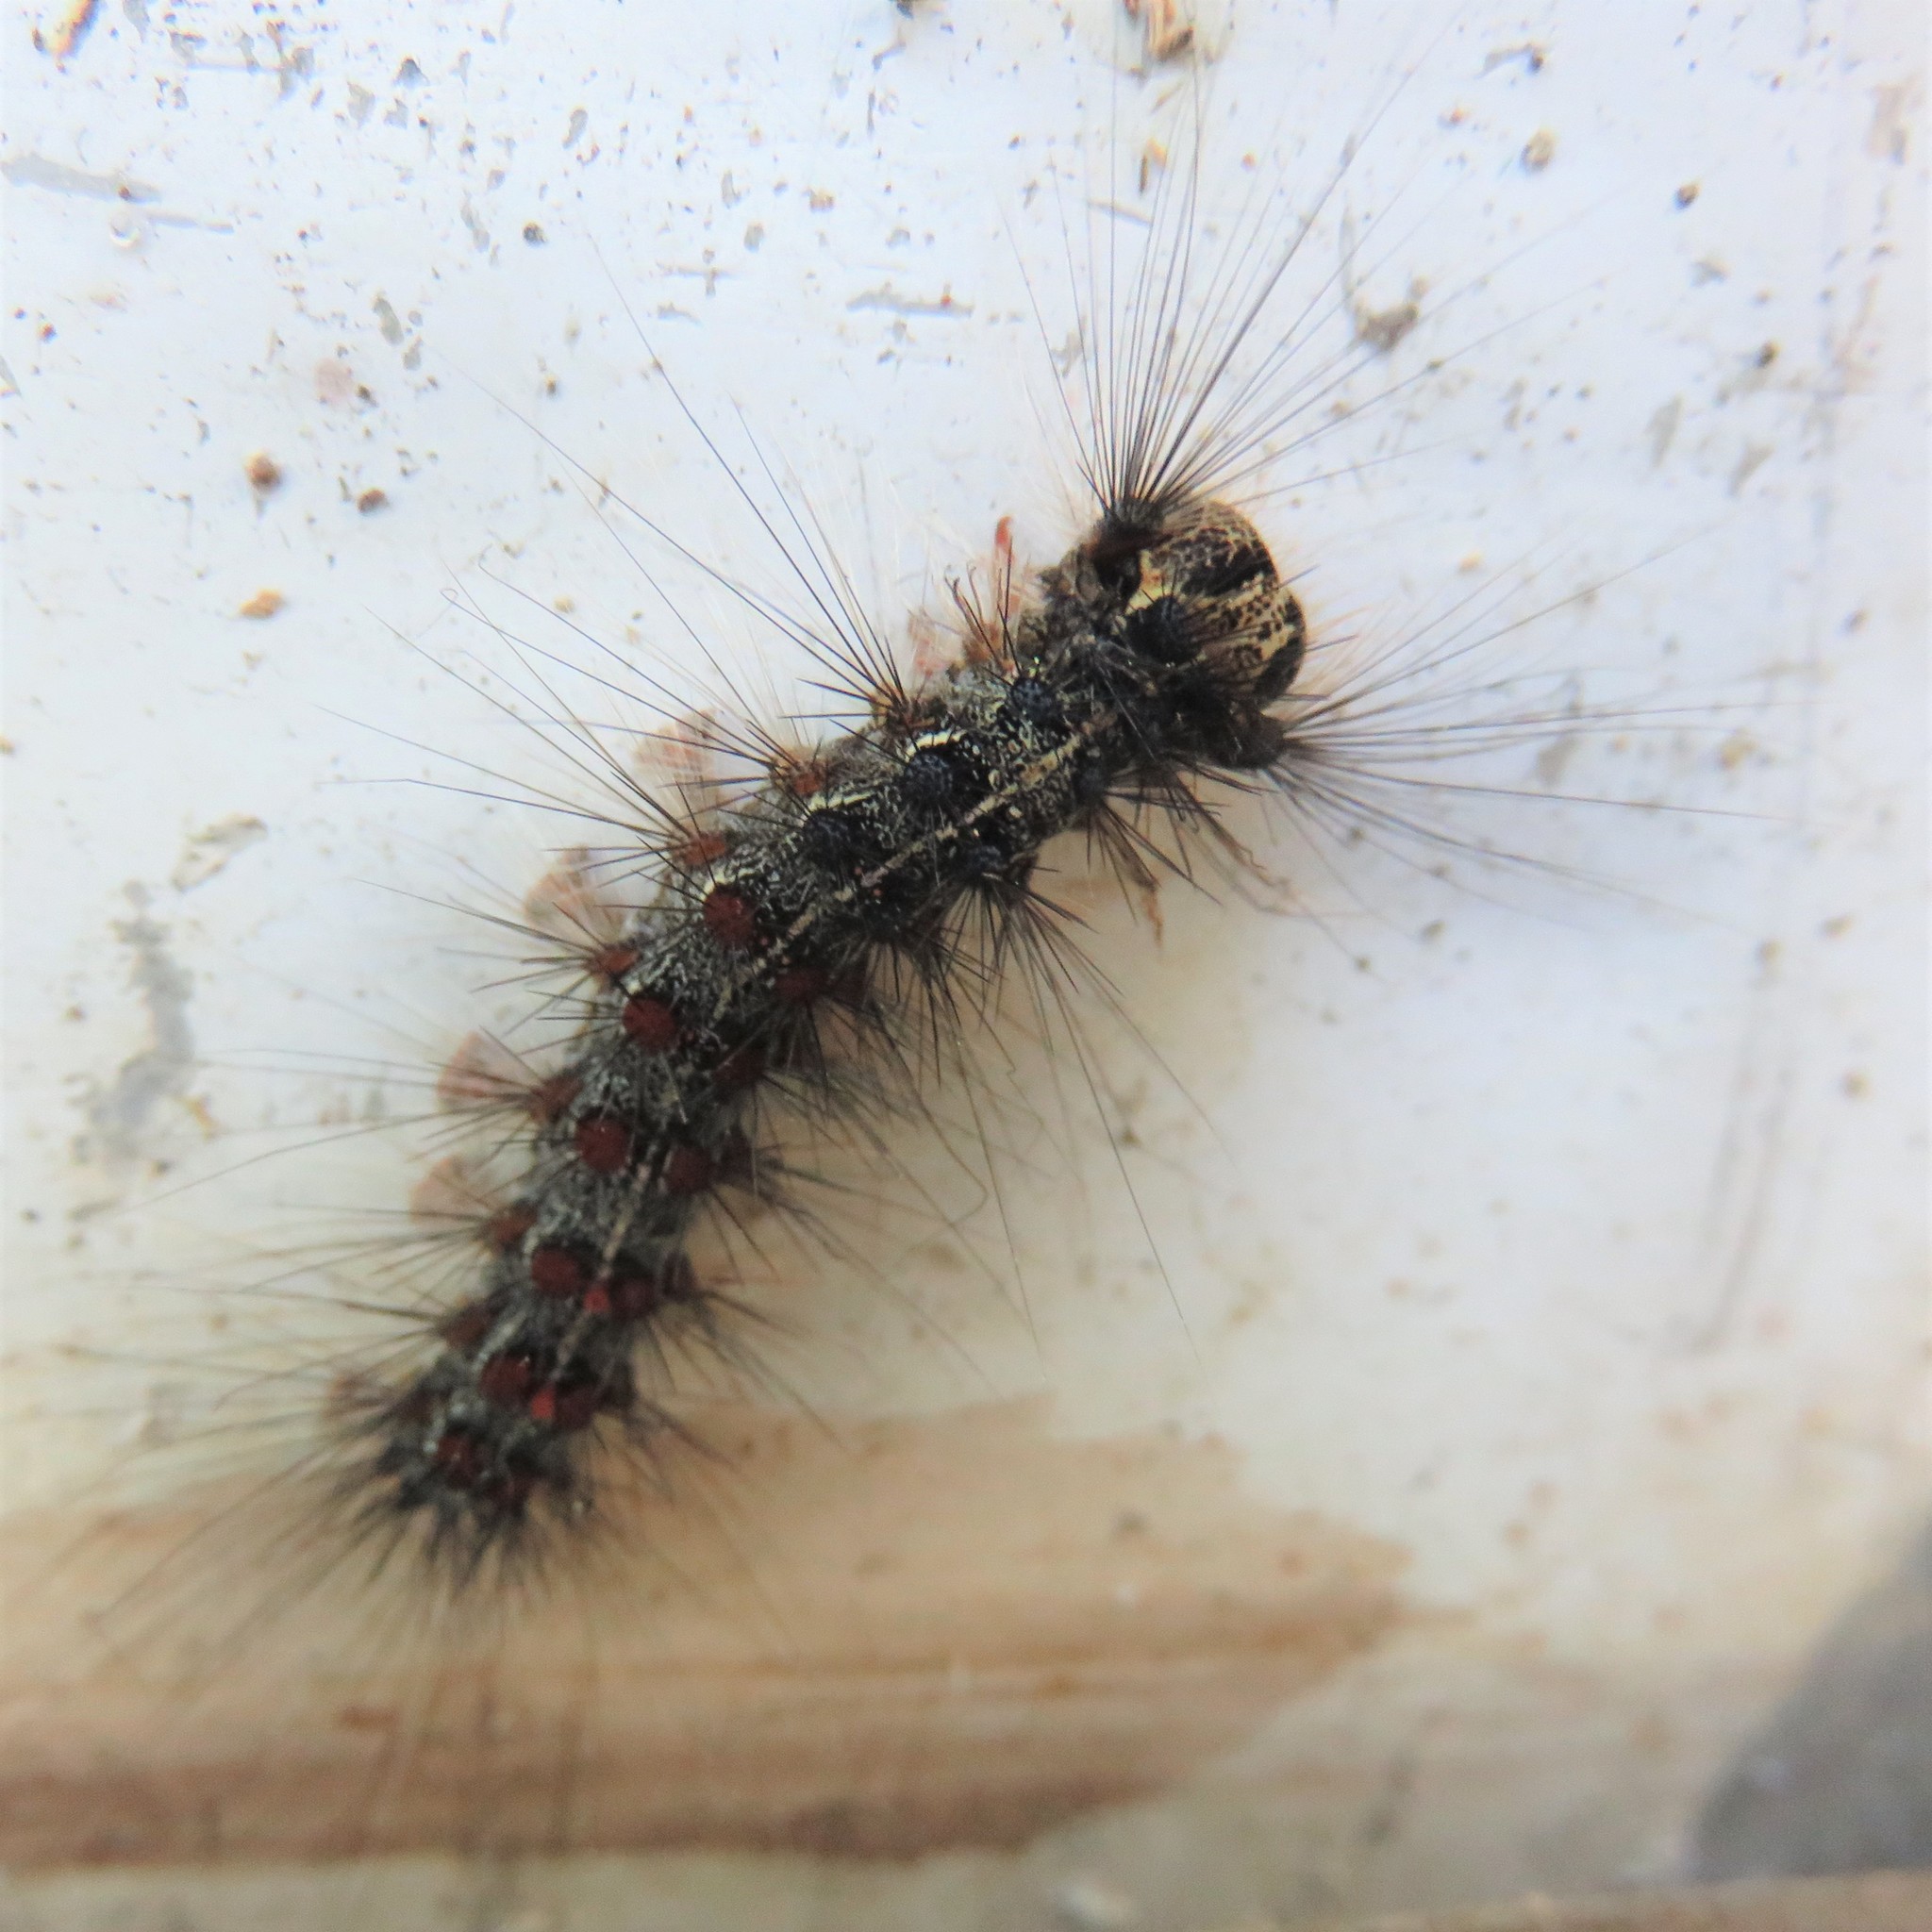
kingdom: Animalia
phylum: Arthropoda
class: Insecta
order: Lepidoptera
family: Erebidae
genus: Lymantria
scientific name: Lymantria dispar
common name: Gypsy moth
